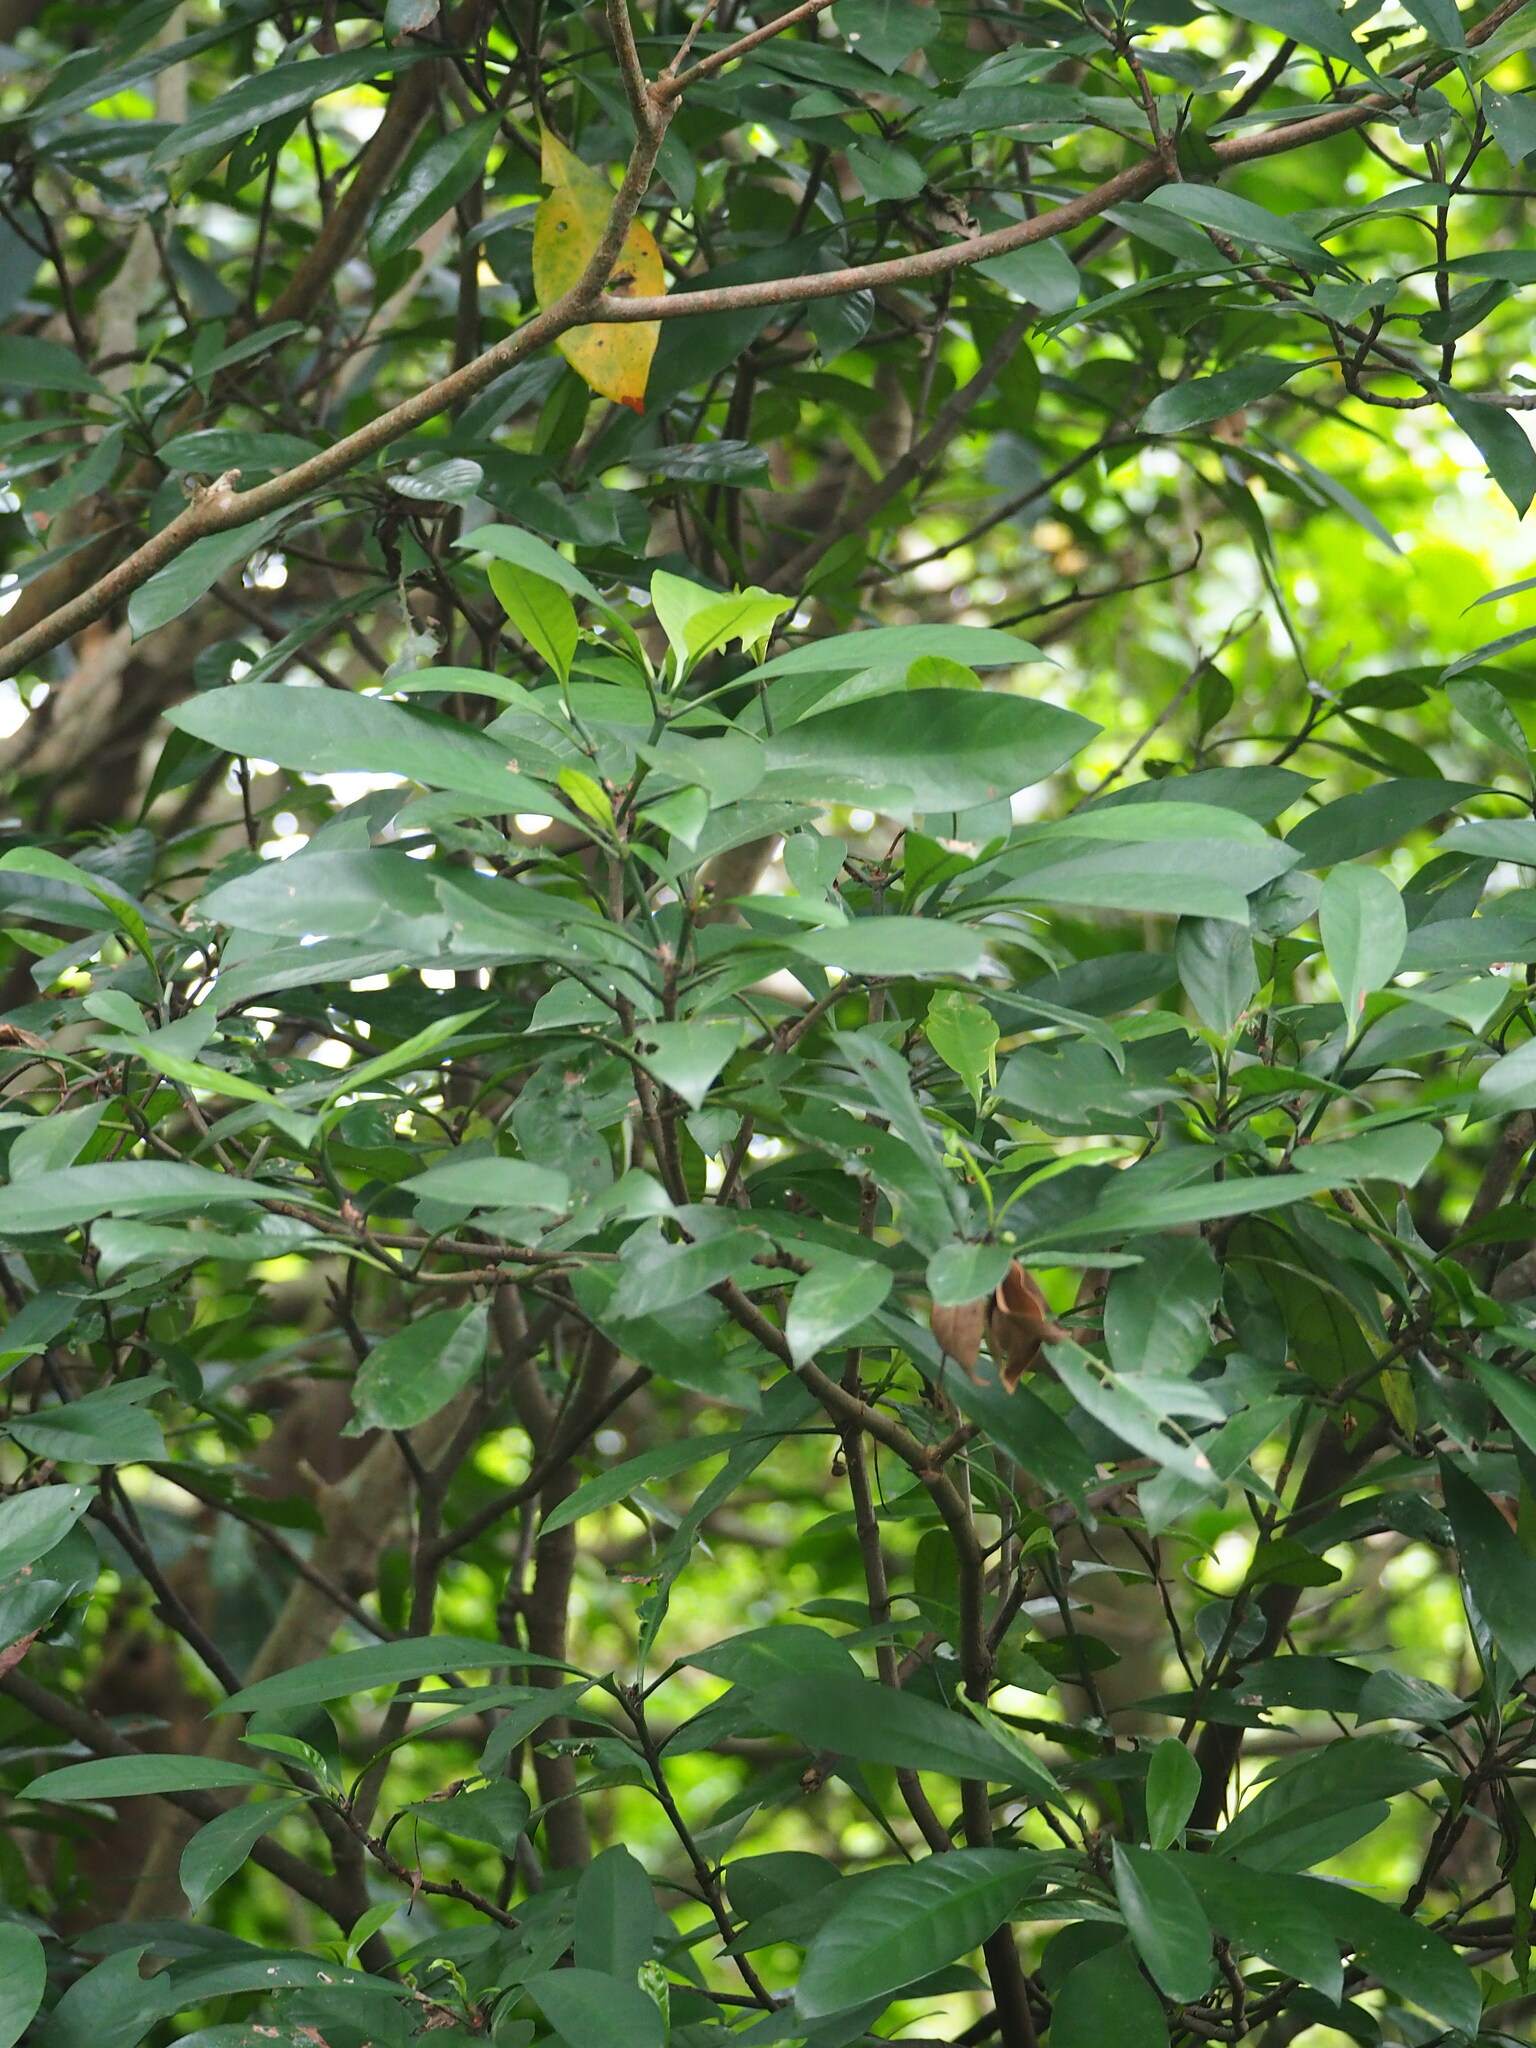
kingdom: Plantae
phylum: Tracheophyta
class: Magnoliopsida
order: Gentianales
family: Rubiaceae
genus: Psychotria
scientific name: Psychotria asiatica
